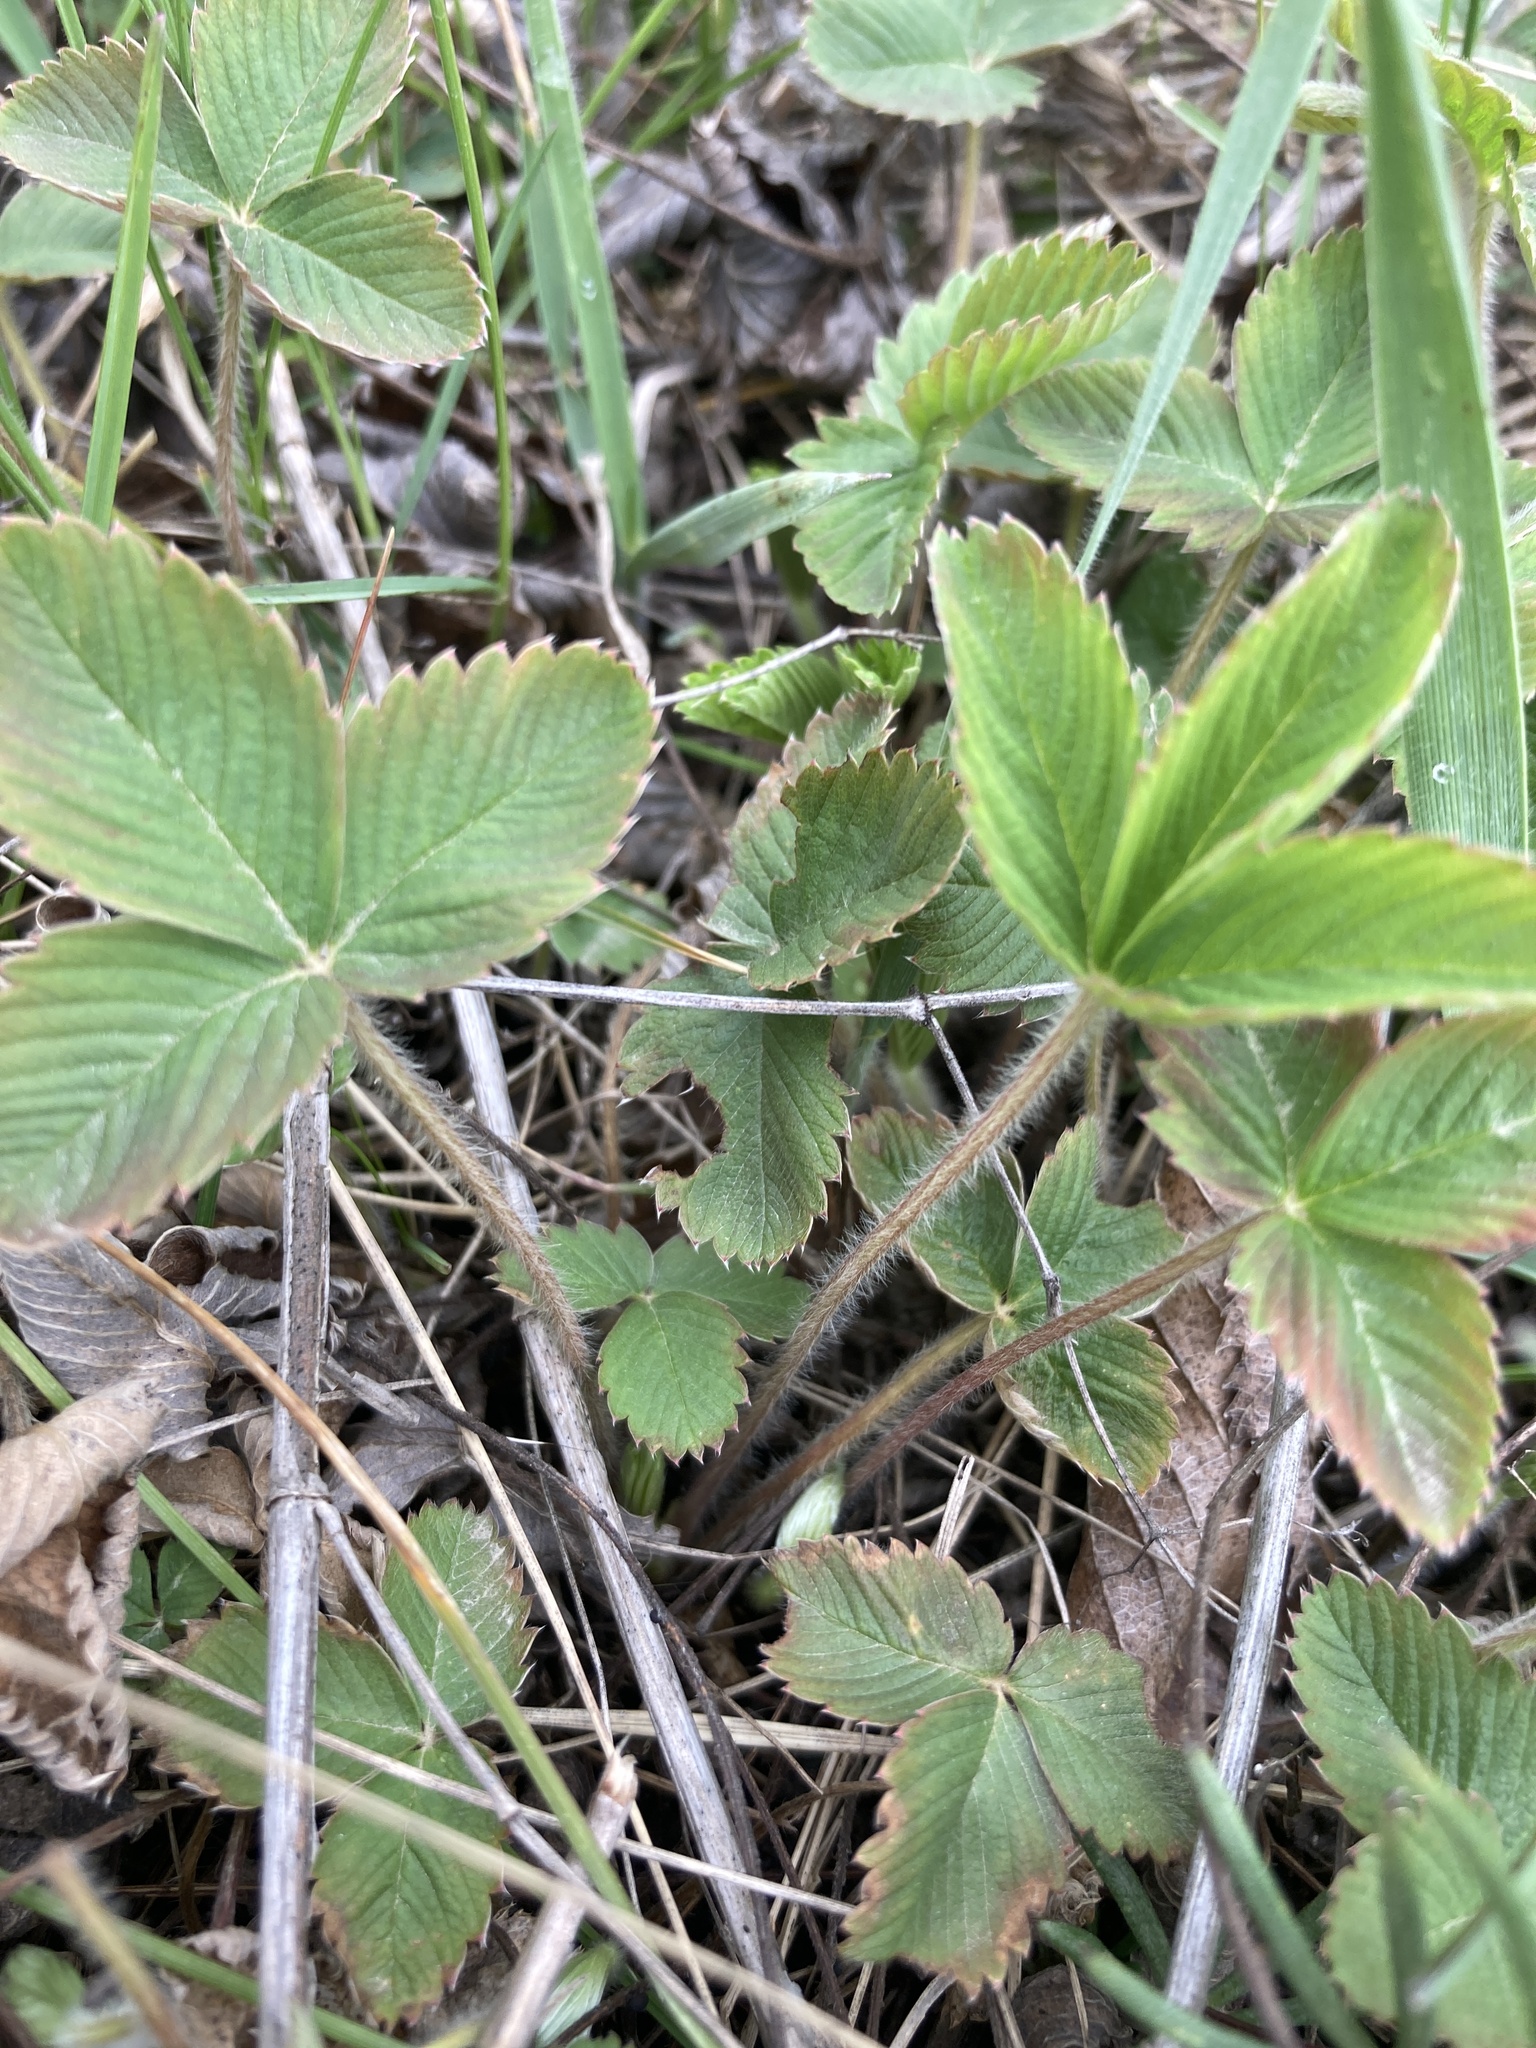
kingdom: Plantae
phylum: Tracheophyta
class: Magnoliopsida
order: Rosales
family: Rosaceae
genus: Fragaria
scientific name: Fragaria viridis
